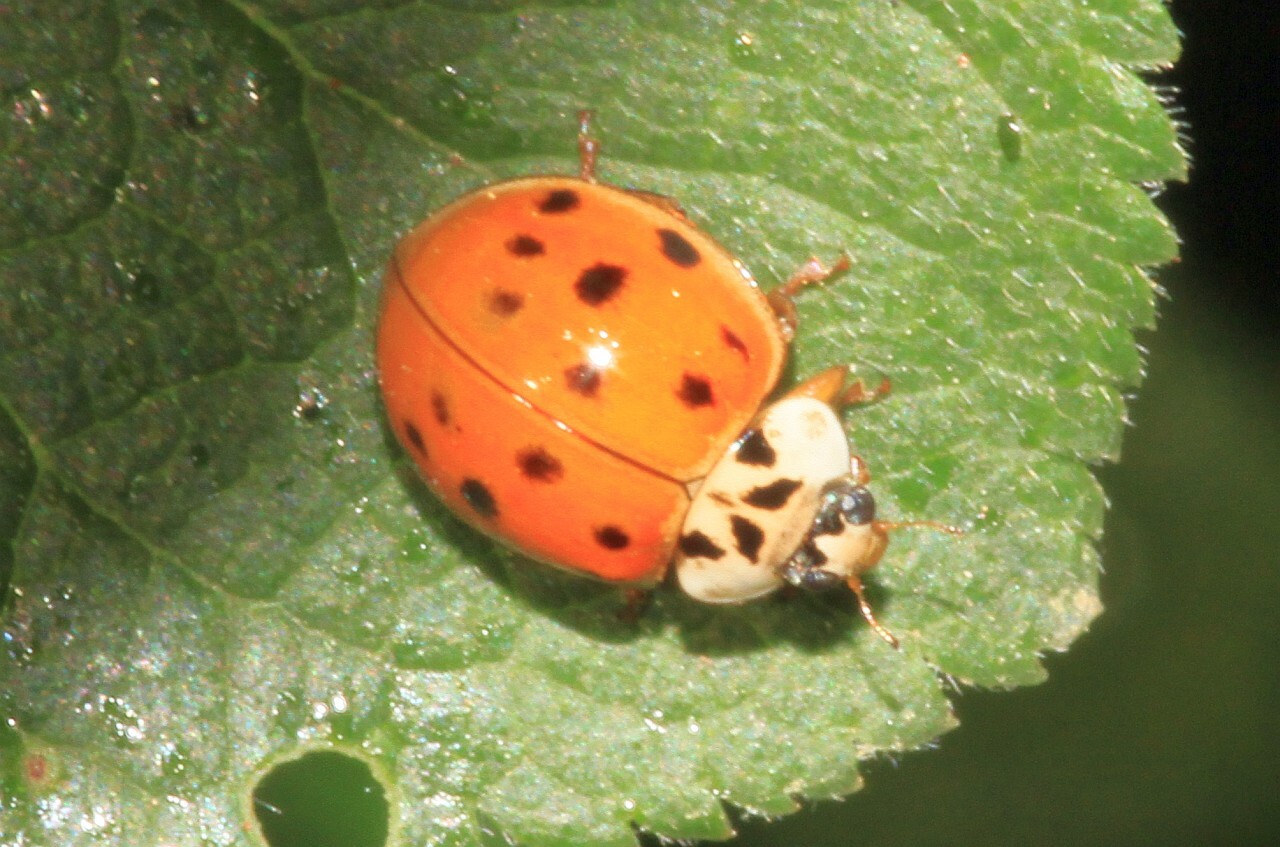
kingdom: Animalia
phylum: Arthropoda
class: Insecta
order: Coleoptera
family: Coccinellidae
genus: Harmonia
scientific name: Harmonia axyridis
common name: Harlequin ladybird
